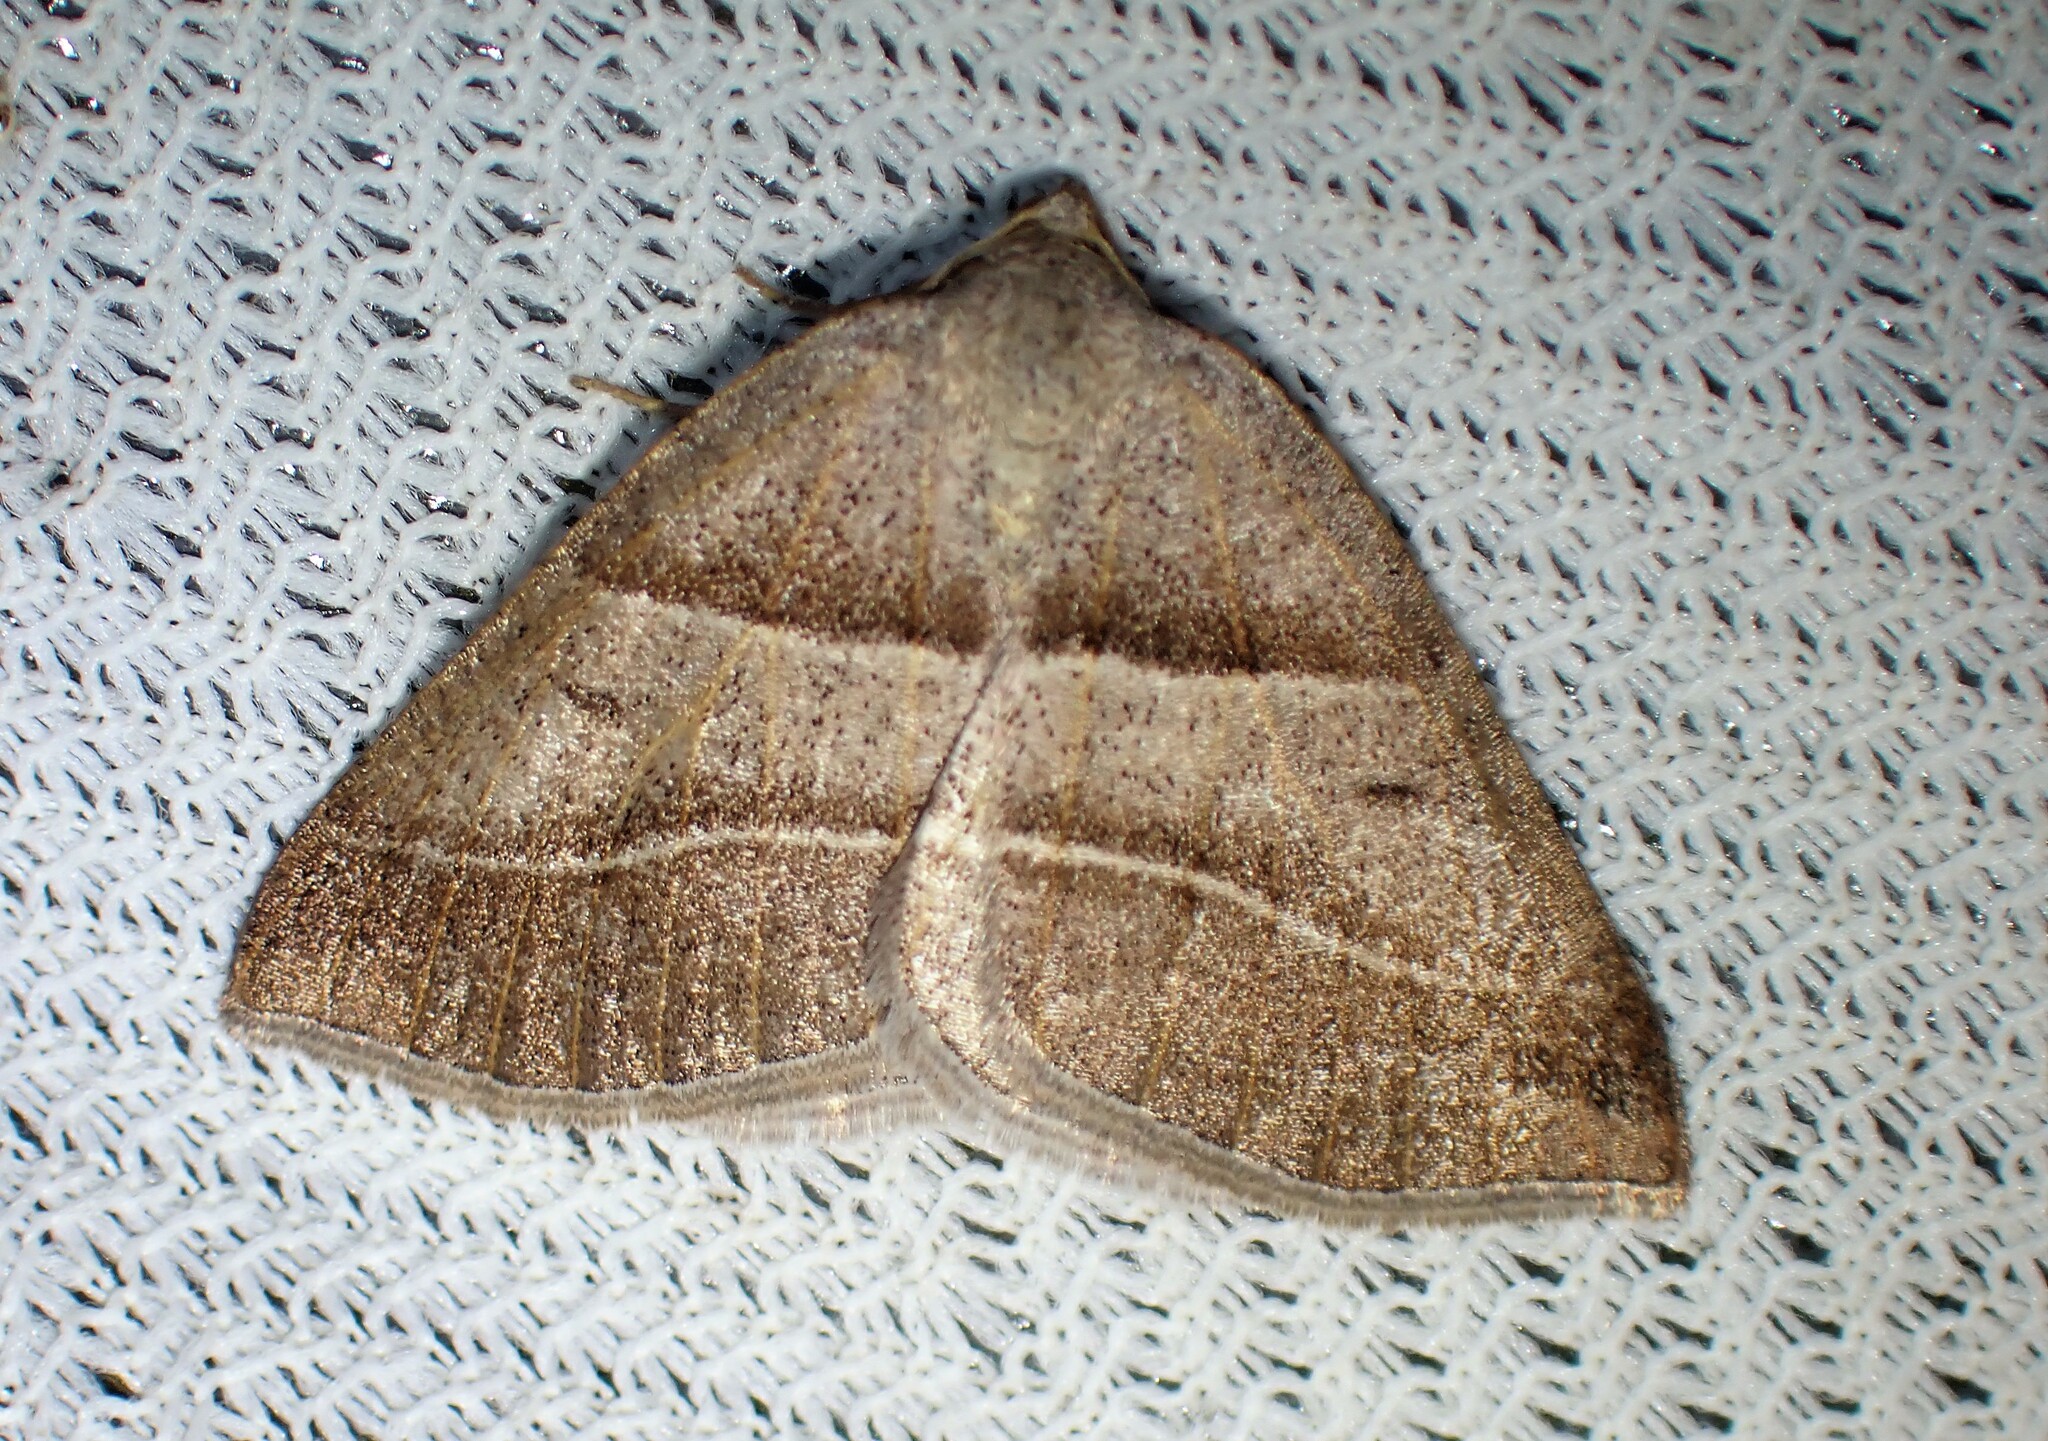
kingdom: Animalia
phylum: Arthropoda
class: Insecta
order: Lepidoptera
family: Pterophoridae
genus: Pterophorus
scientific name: Pterophorus Petrophora subaequaria
